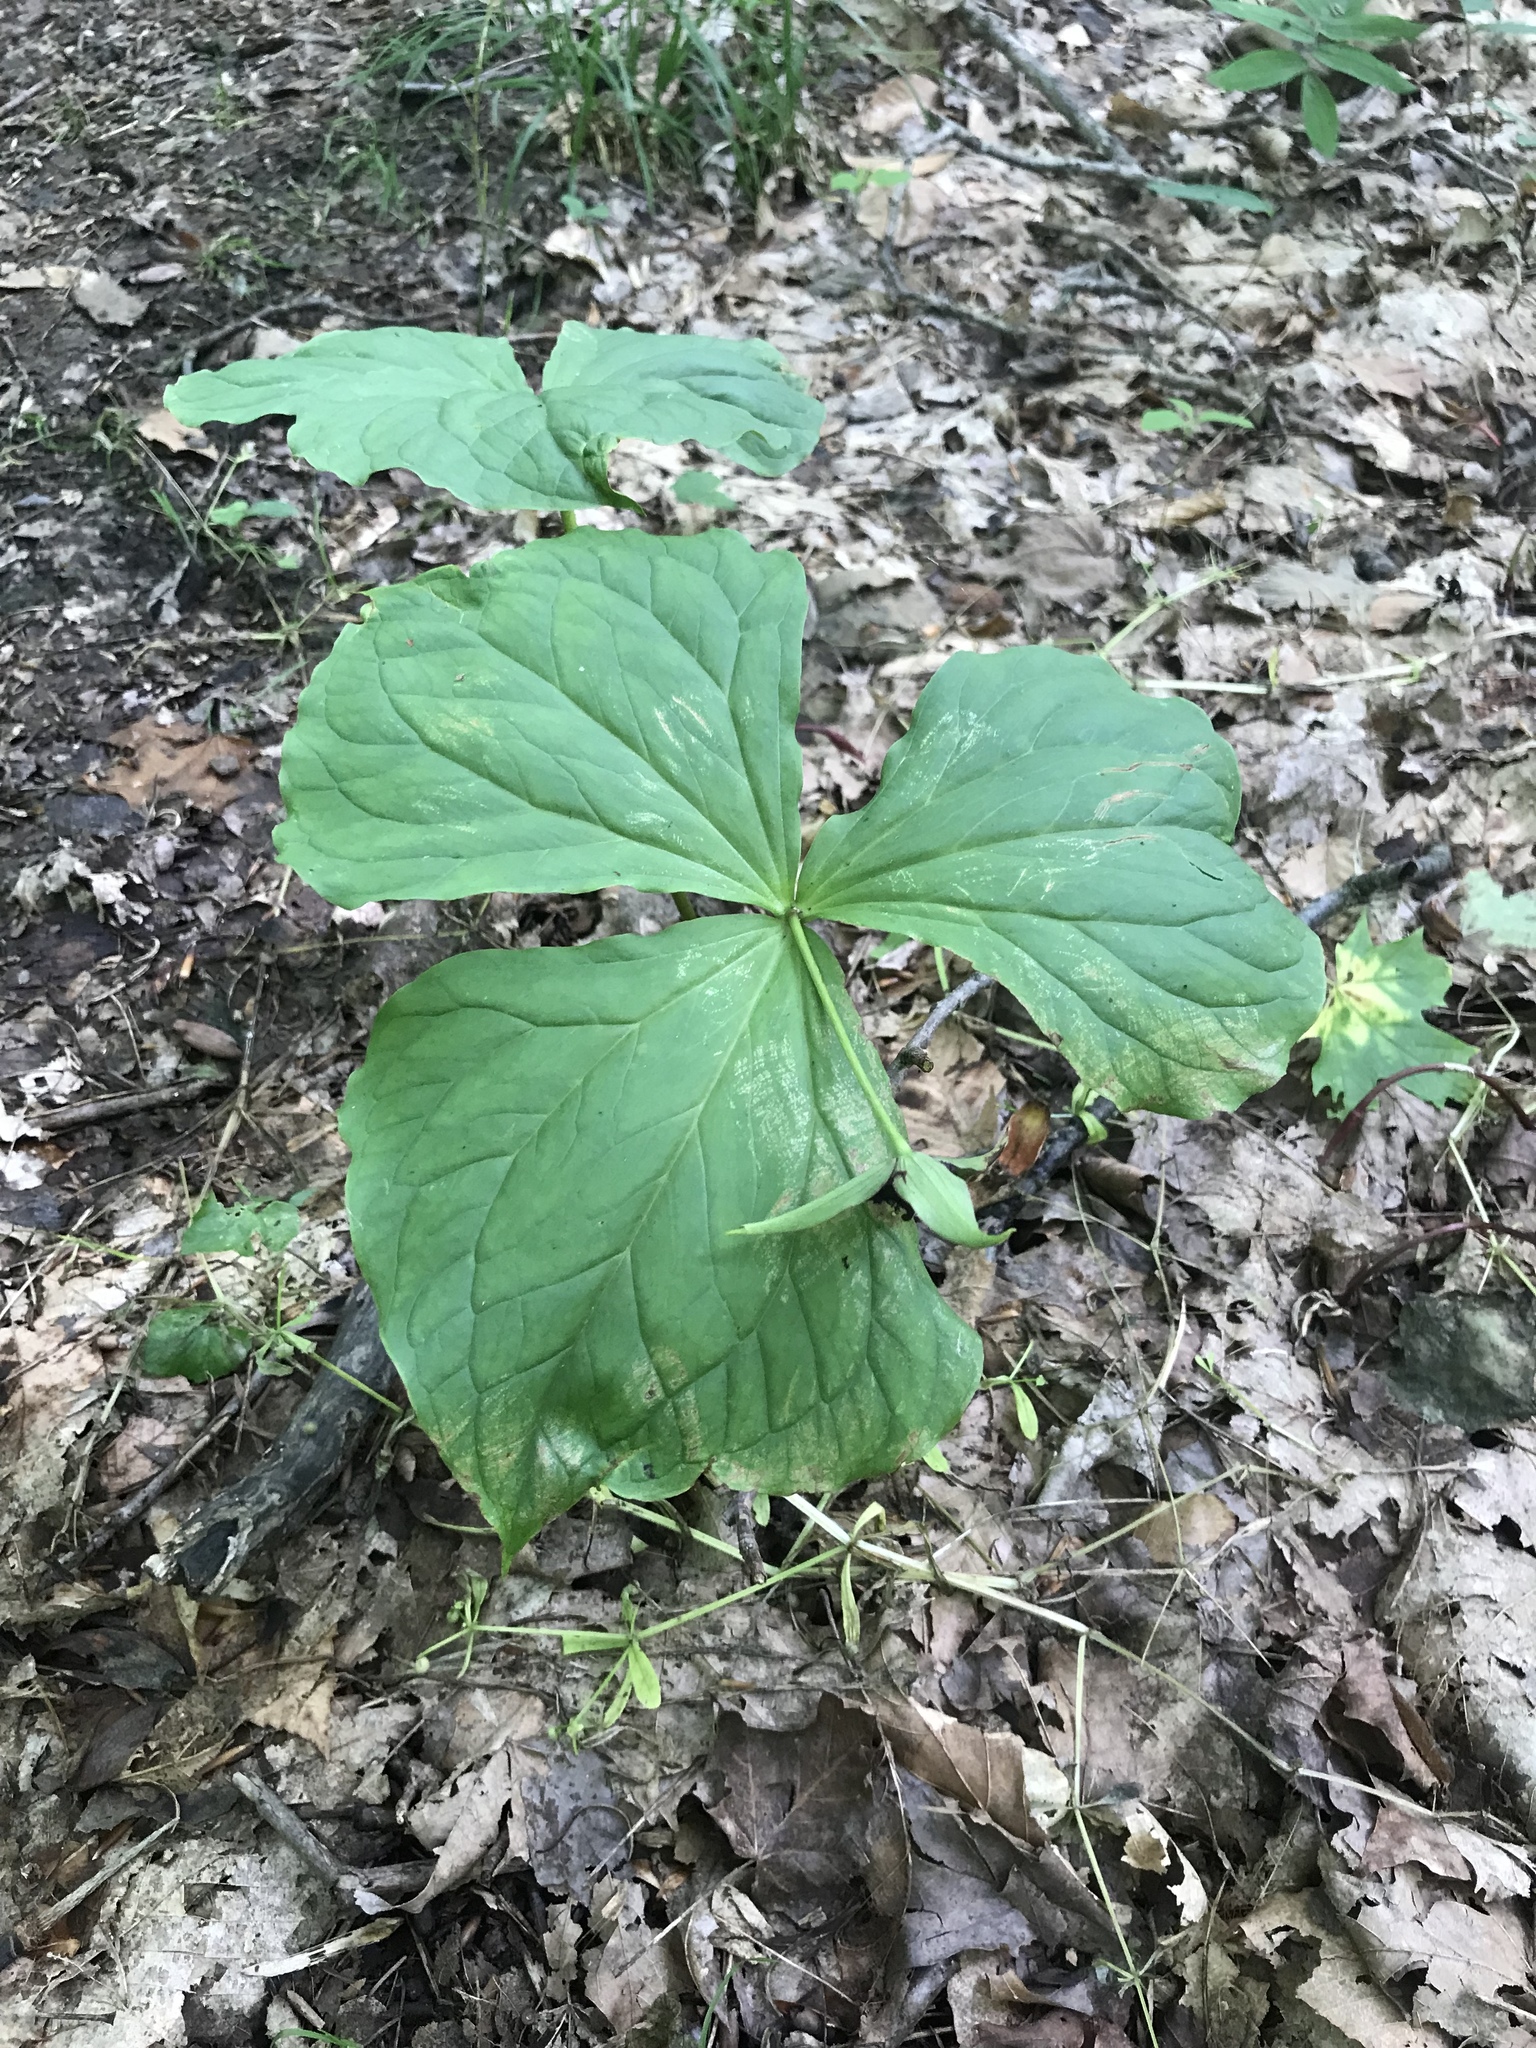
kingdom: Plantae
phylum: Tracheophyta
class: Liliopsida
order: Liliales
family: Melanthiaceae
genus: Trillium
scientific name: Trillium erectum
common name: Purple trillium
